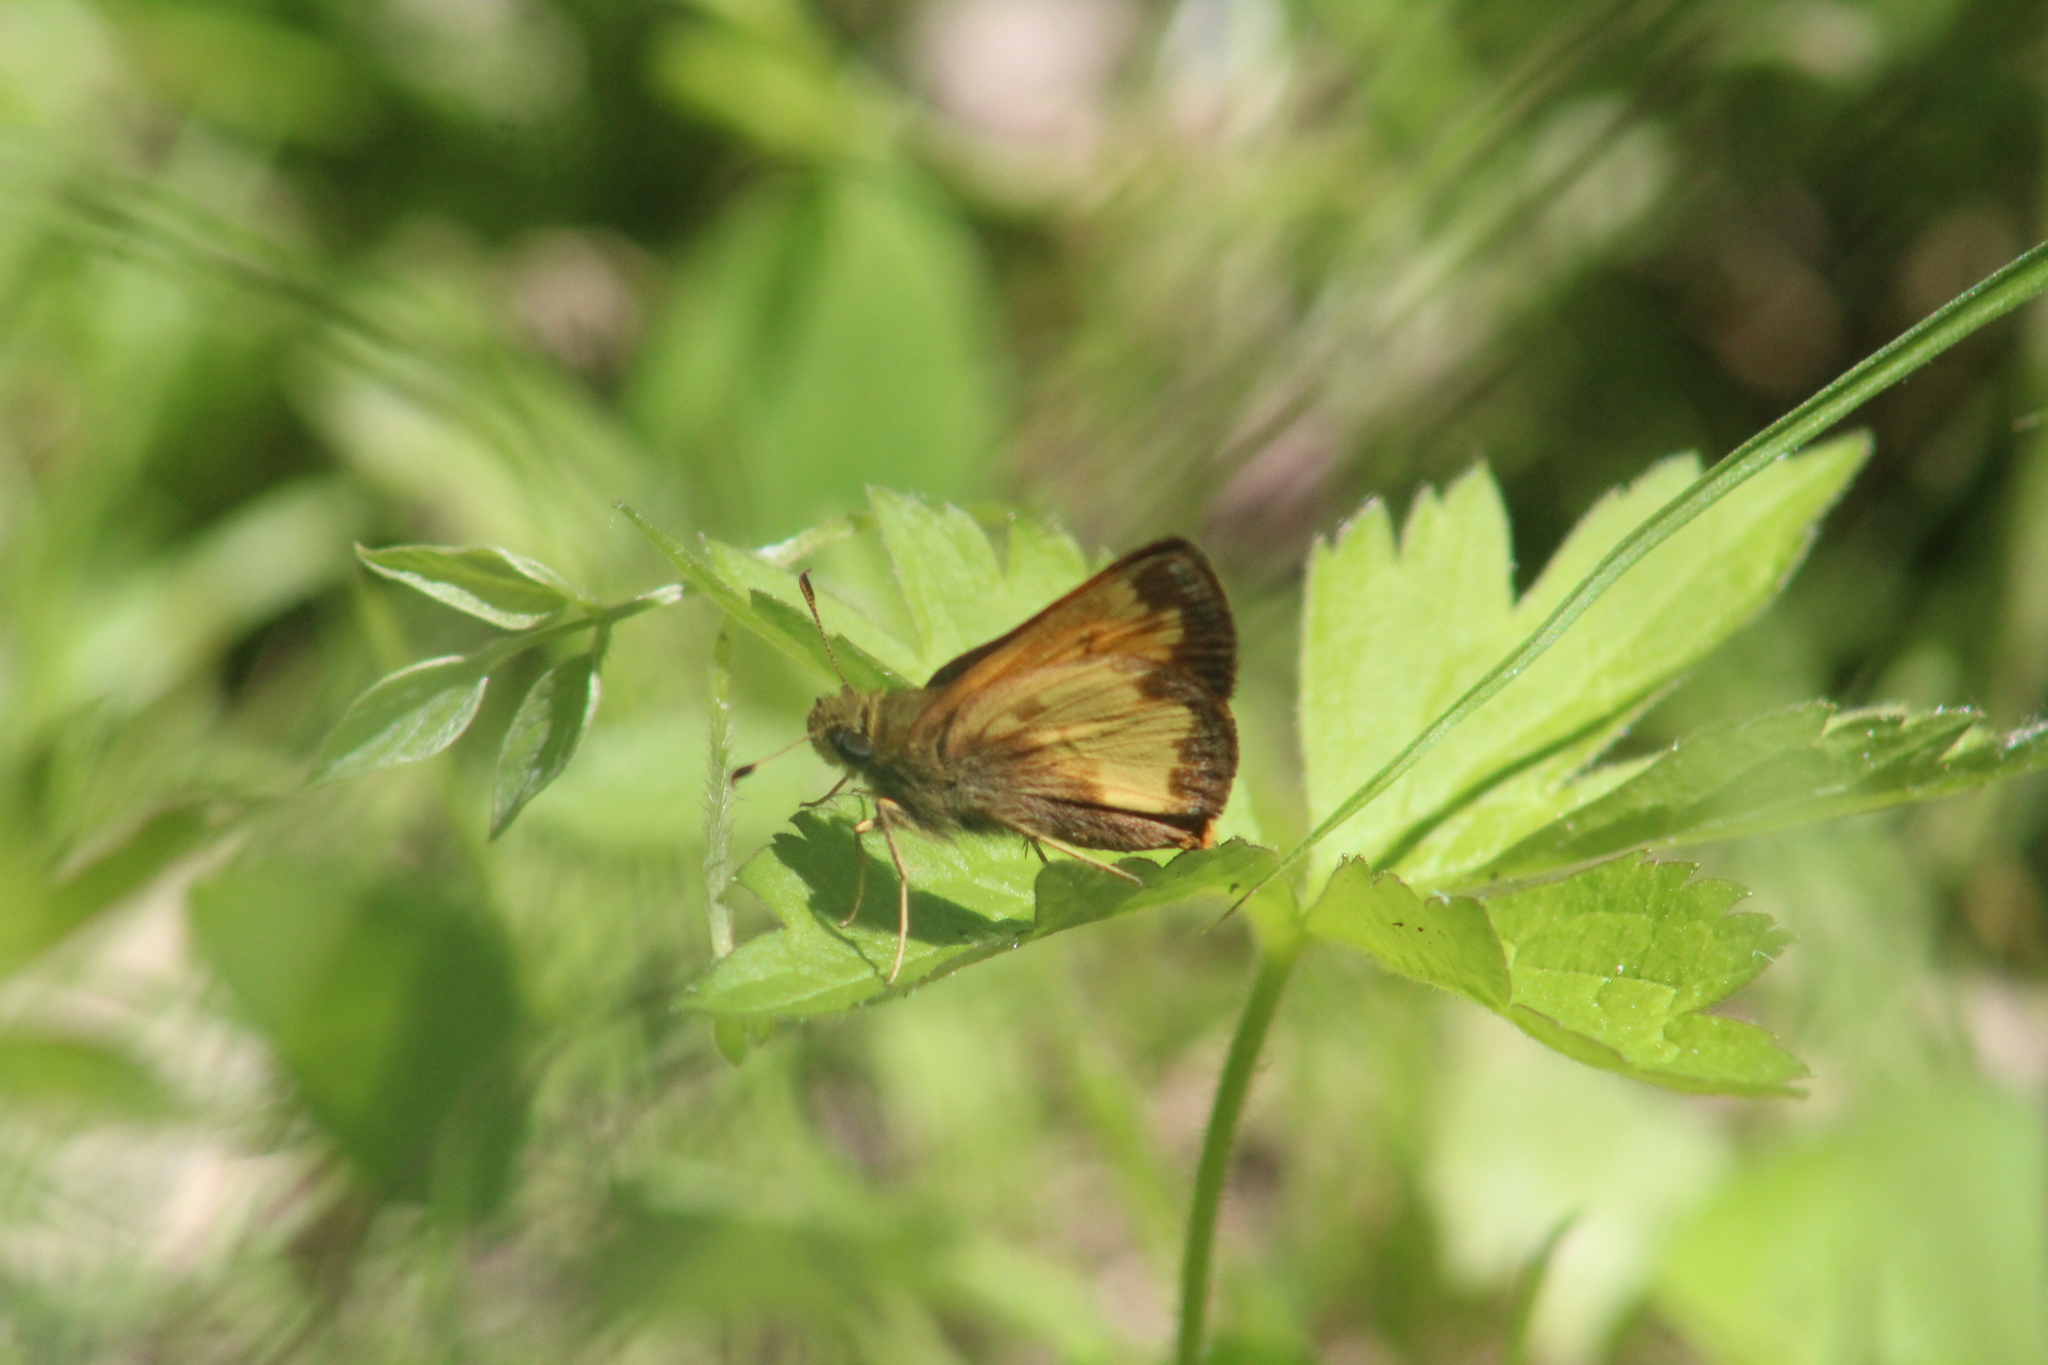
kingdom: Animalia
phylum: Arthropoda
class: Insecta
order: Lepidoptera
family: Hesperiidae
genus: Lon
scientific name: Lon hobomok
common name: Hobomok skipper
